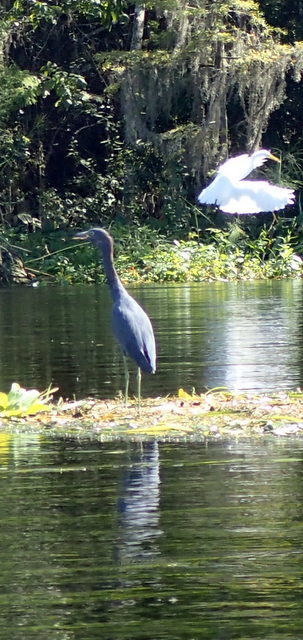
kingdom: Animalia
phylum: Chordata
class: Aves
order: Pelecaniformes
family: Ardeidae
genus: Egretta
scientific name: Egretta caerulea
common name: Little blue heron
